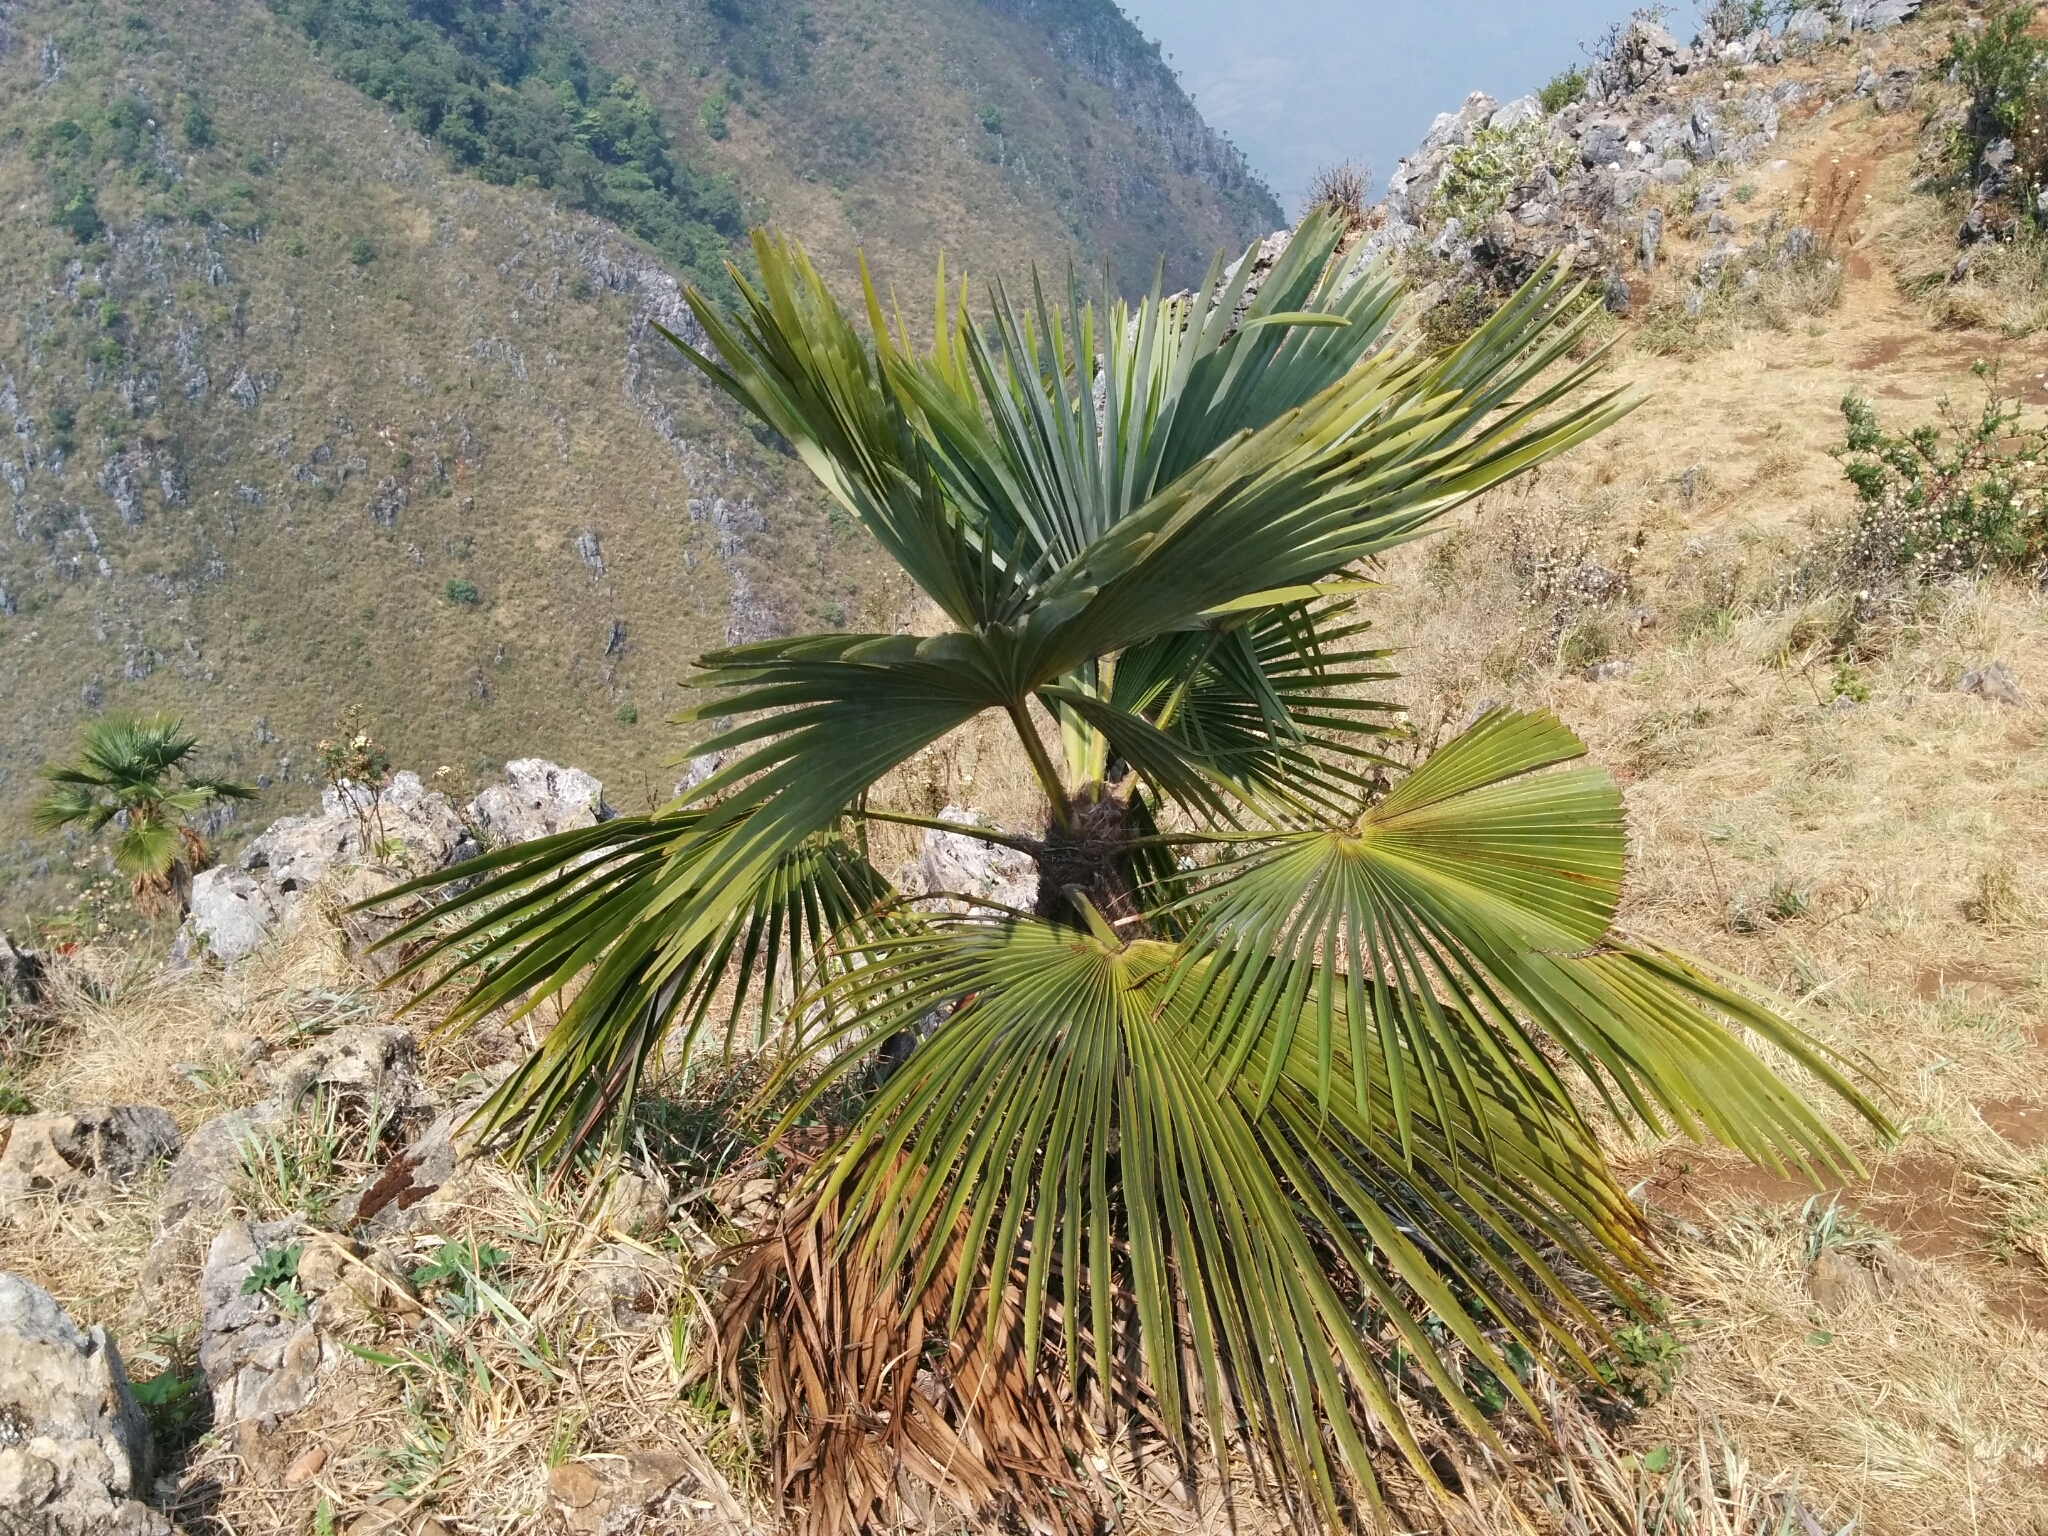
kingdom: Plantae
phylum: Tracheophyta
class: Liliopsida
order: Arecales
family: Arecaceae
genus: Trachycarpus
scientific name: Trachycarpus oreophilus
